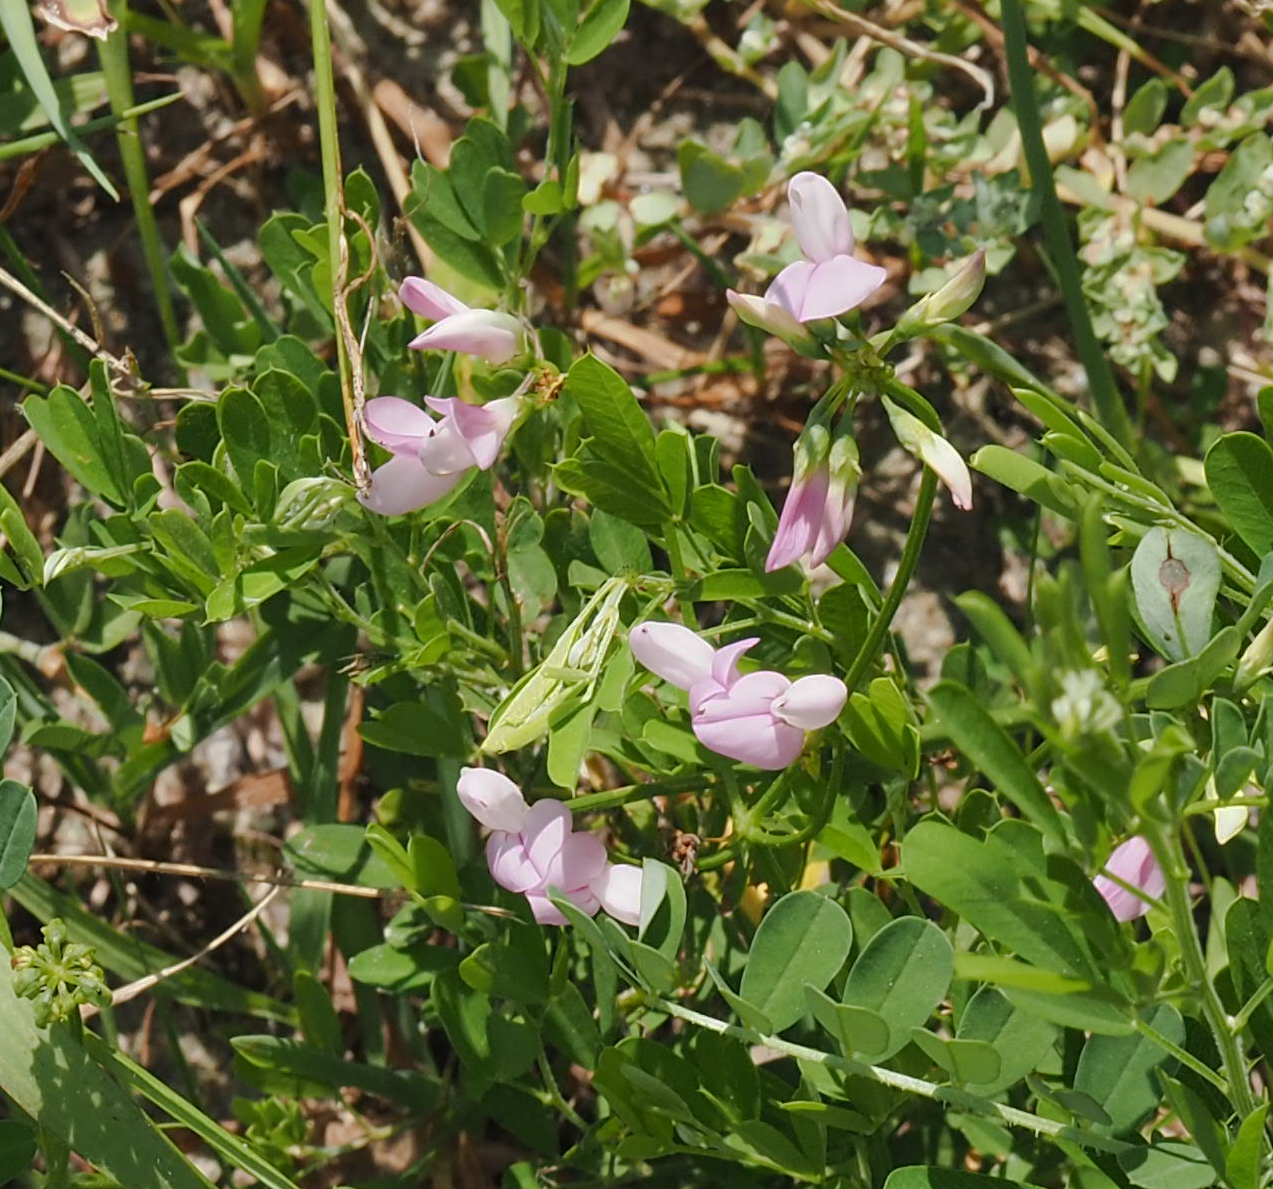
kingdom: Plantae
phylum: Tracheophyta
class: Magnoliopsida
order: Fabales
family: Fabaceae
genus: Coronilla
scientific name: Coronilla varia
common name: Crownvetch
